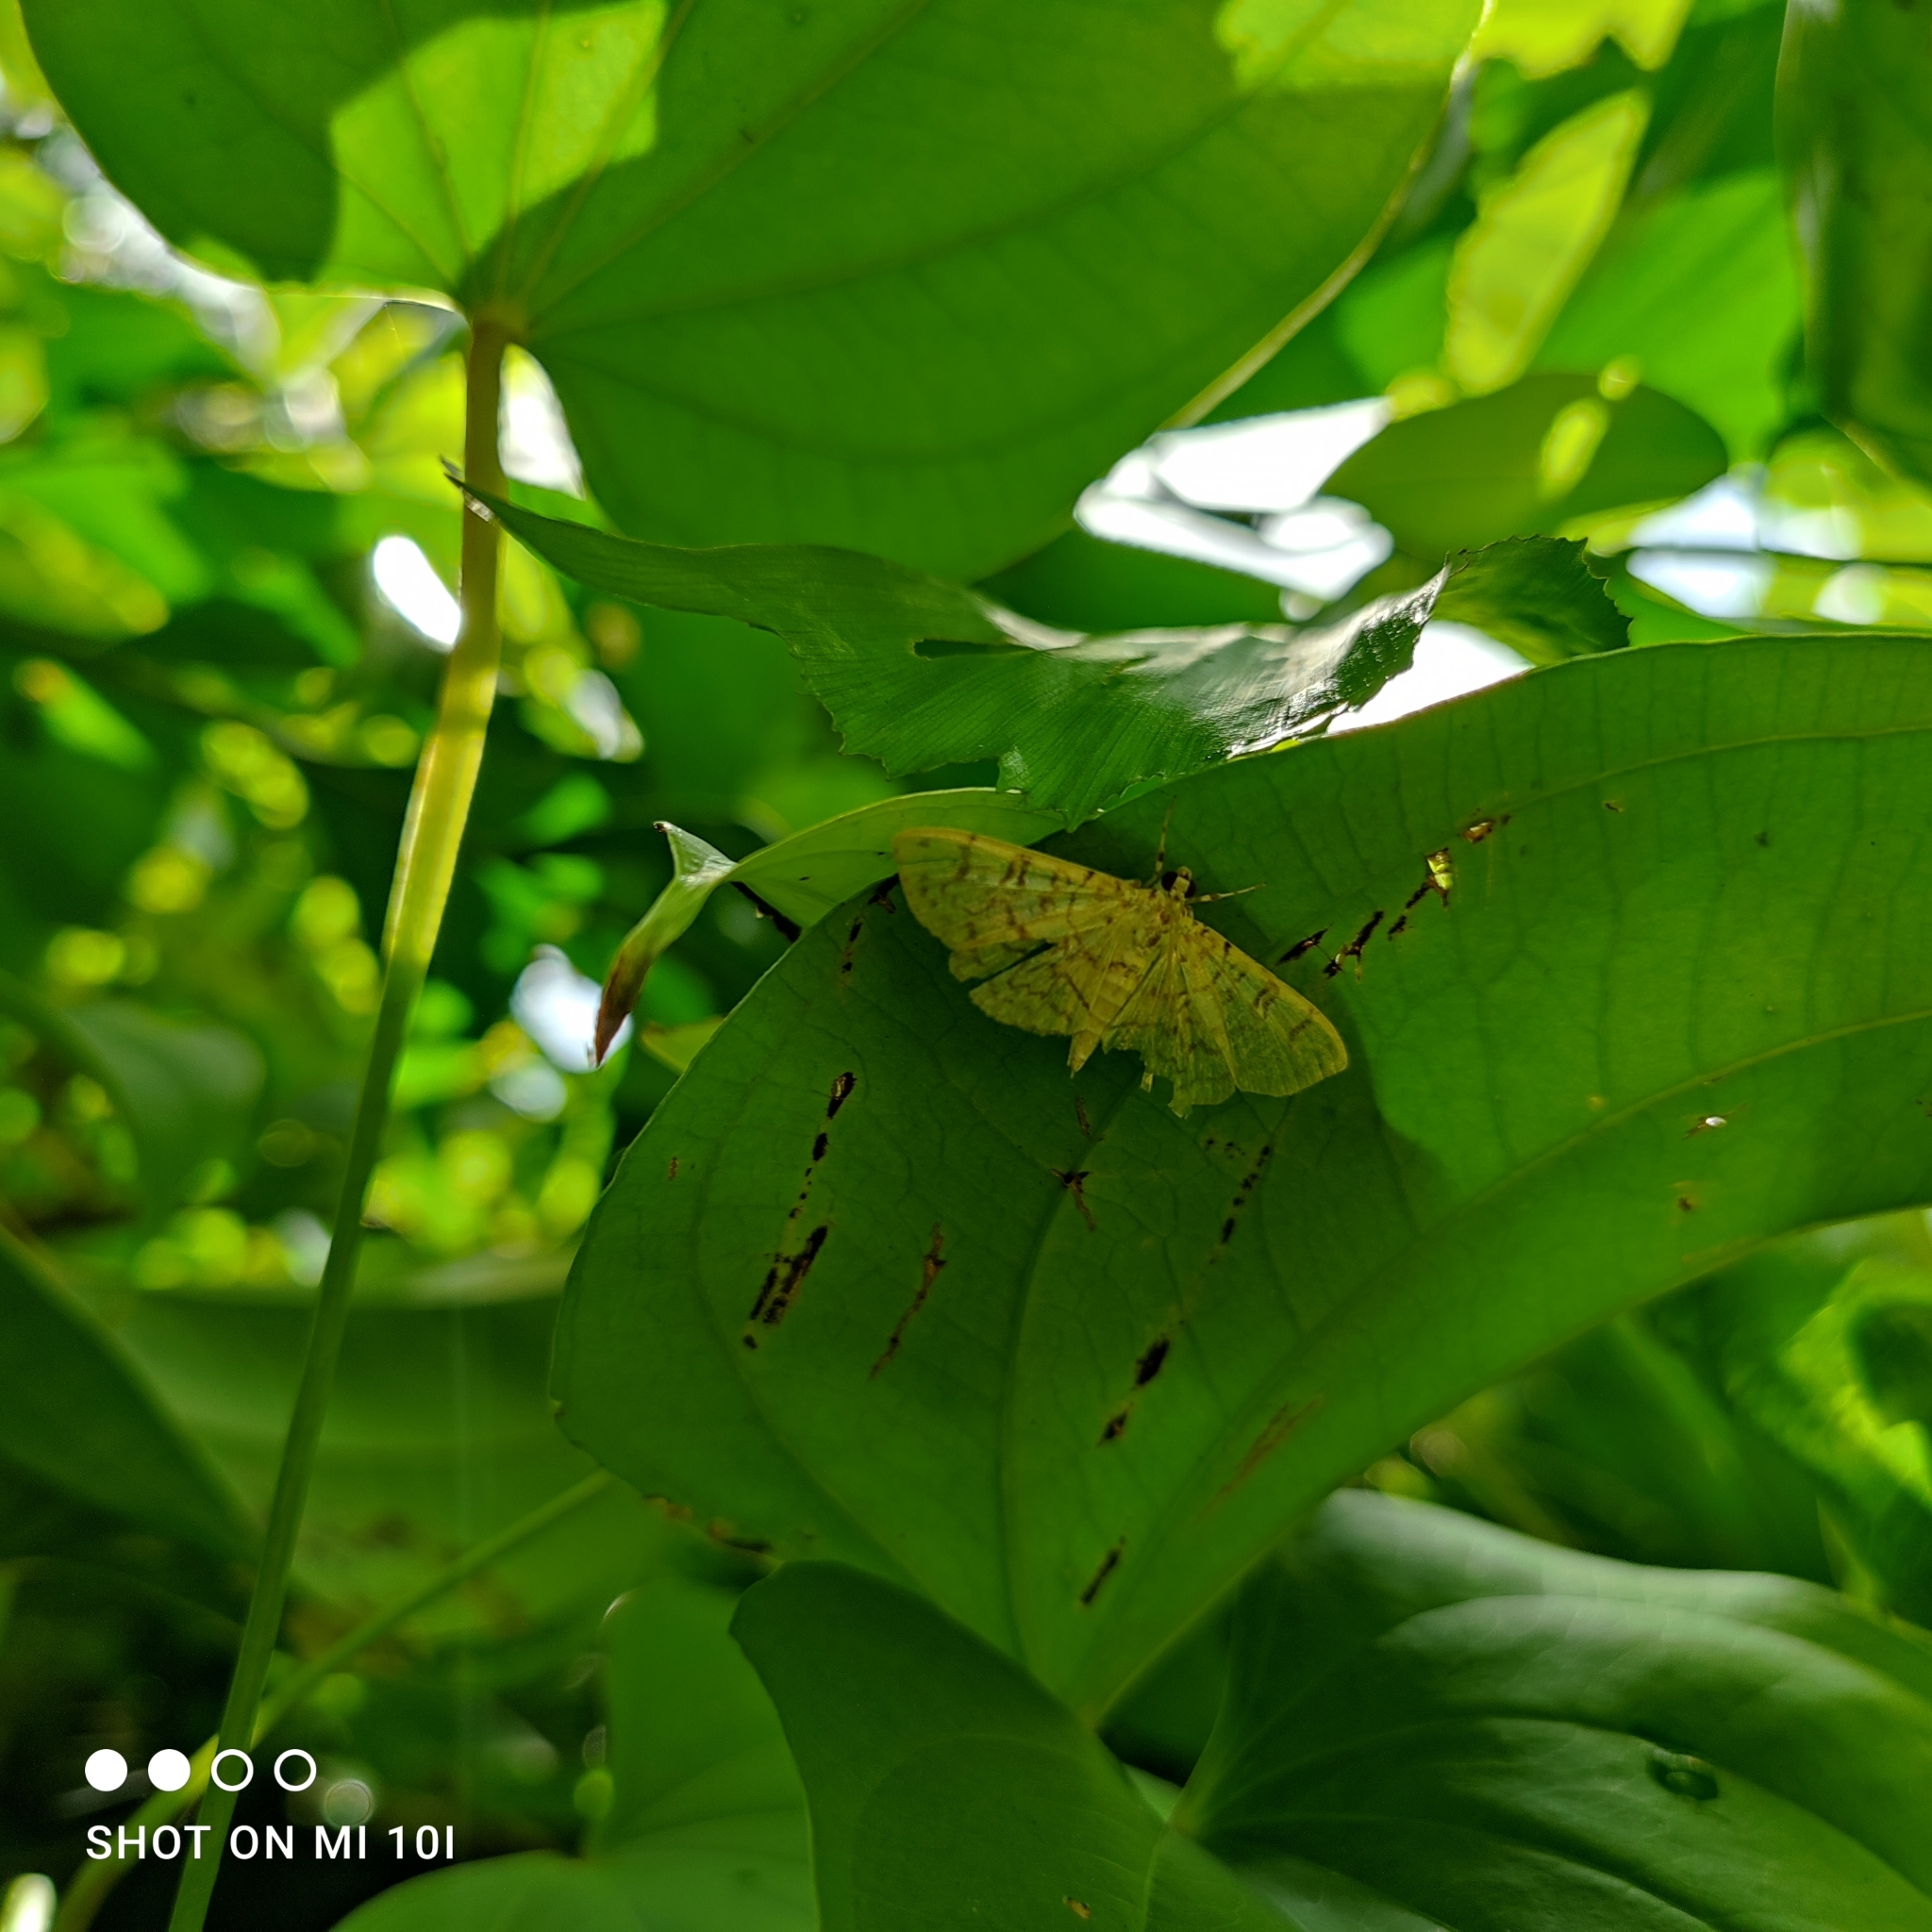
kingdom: Animalia
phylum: Arthropoda
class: Insecta
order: Lepidoptera
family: Crambidae
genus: Haritalodes
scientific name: Haritalodes derogata
